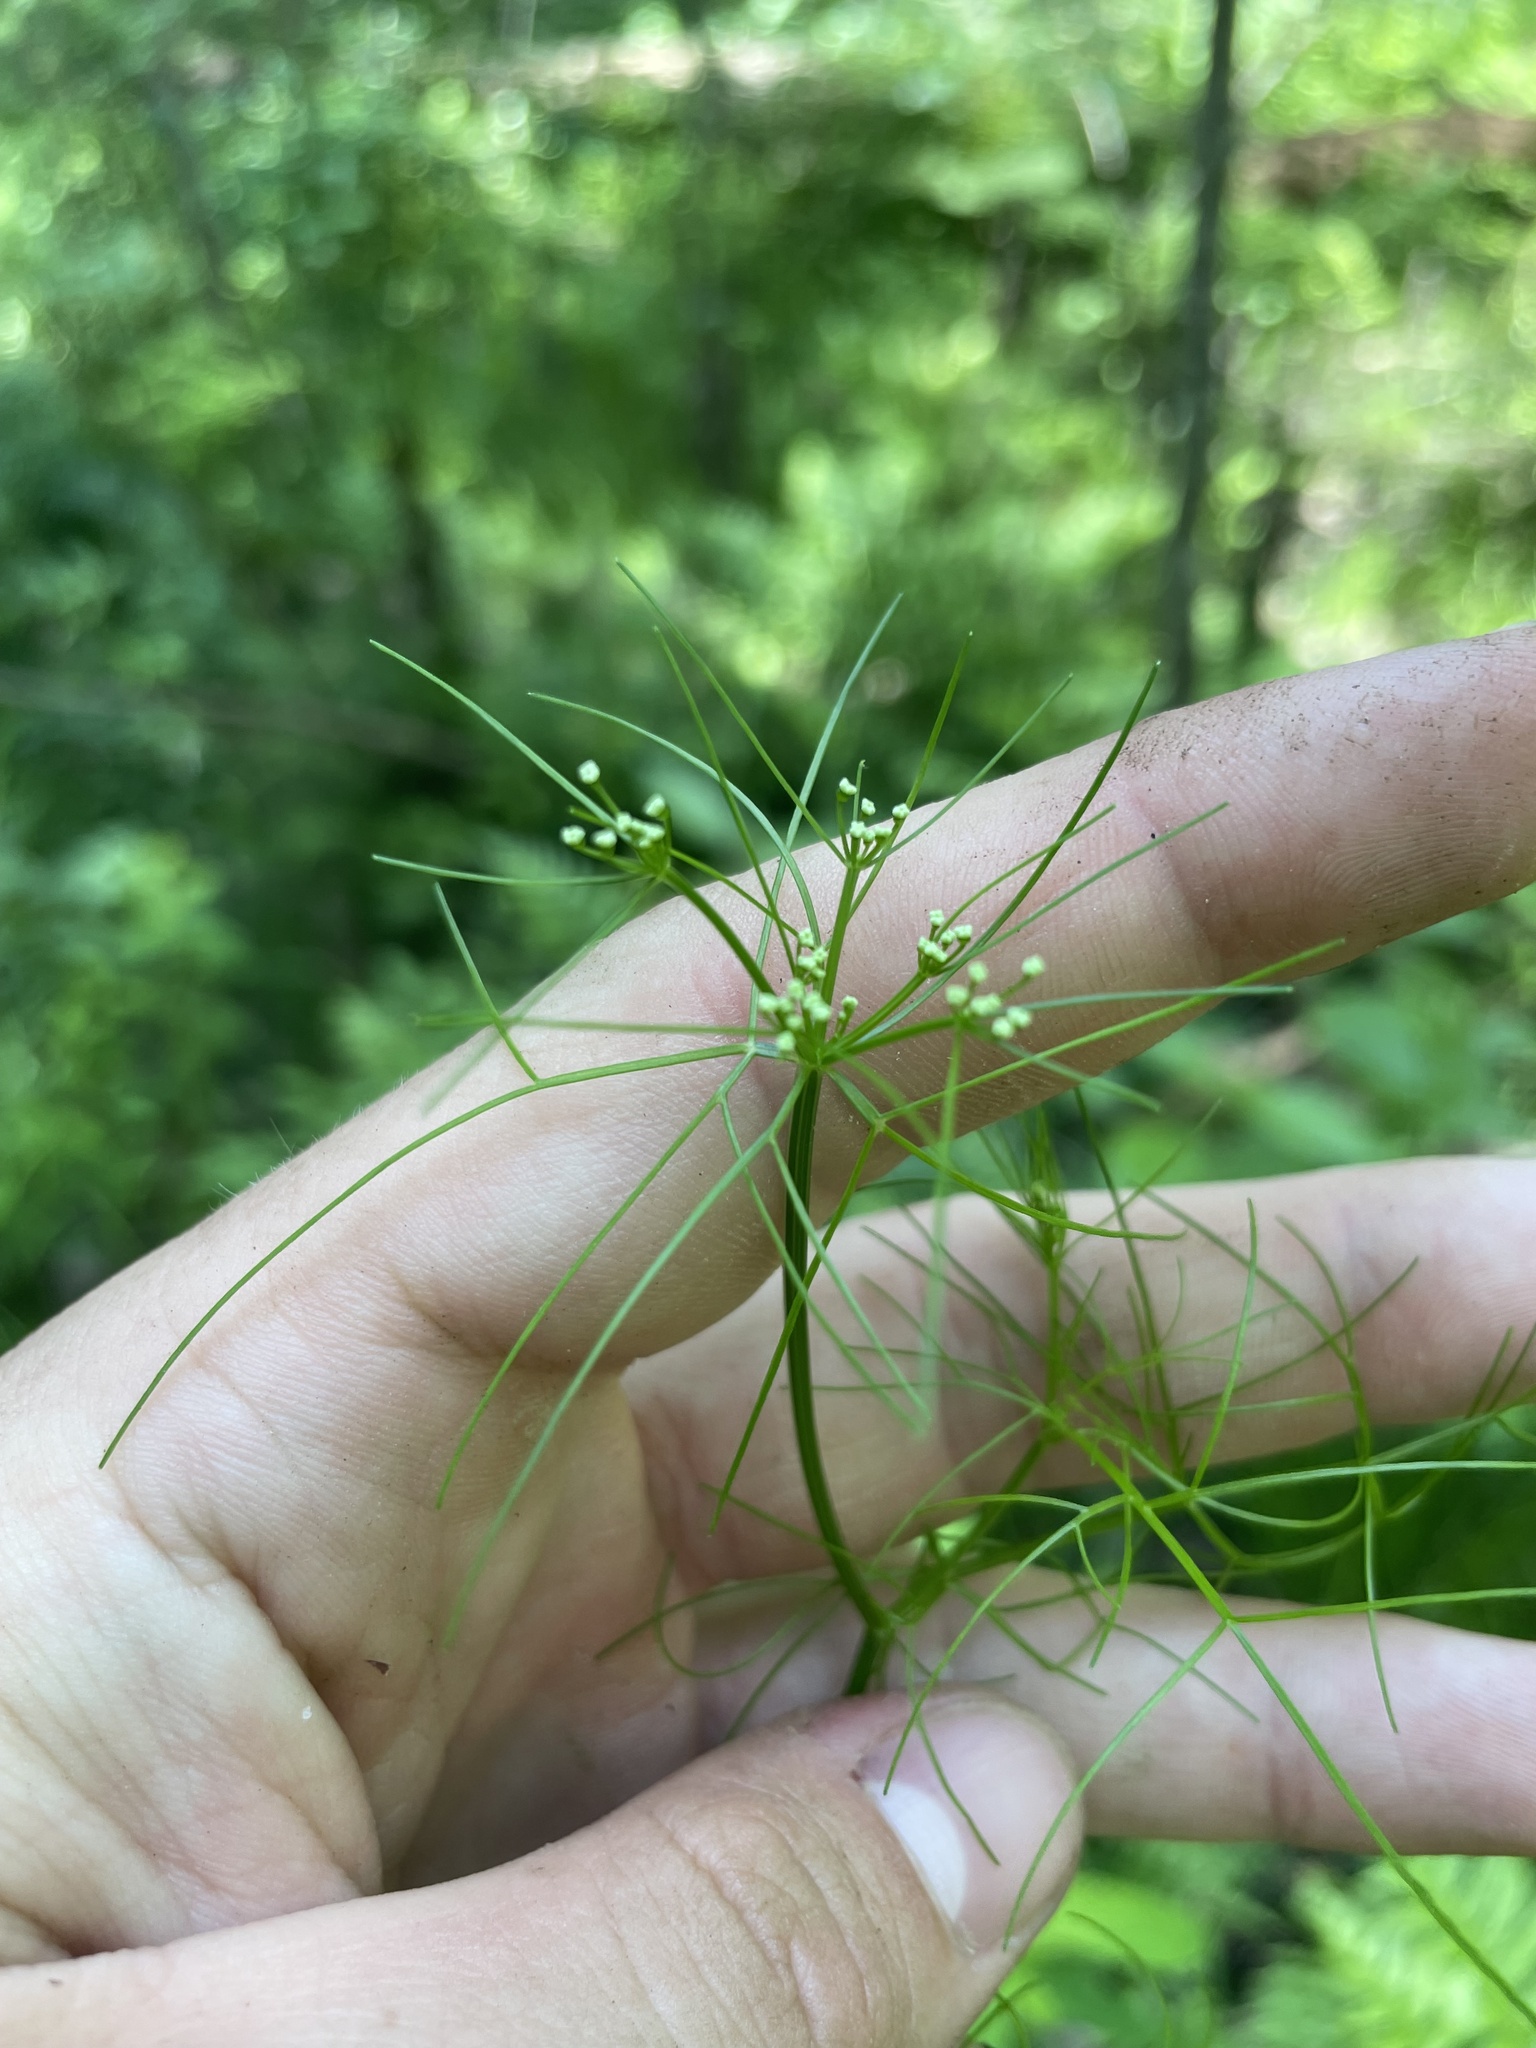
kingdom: Plantae
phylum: Tracheophyta
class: Magnoliopsida
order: Apiales
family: Apiaceae
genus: Ptilimnium
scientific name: Ptilimnium capillaceum
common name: Herbwilliam
